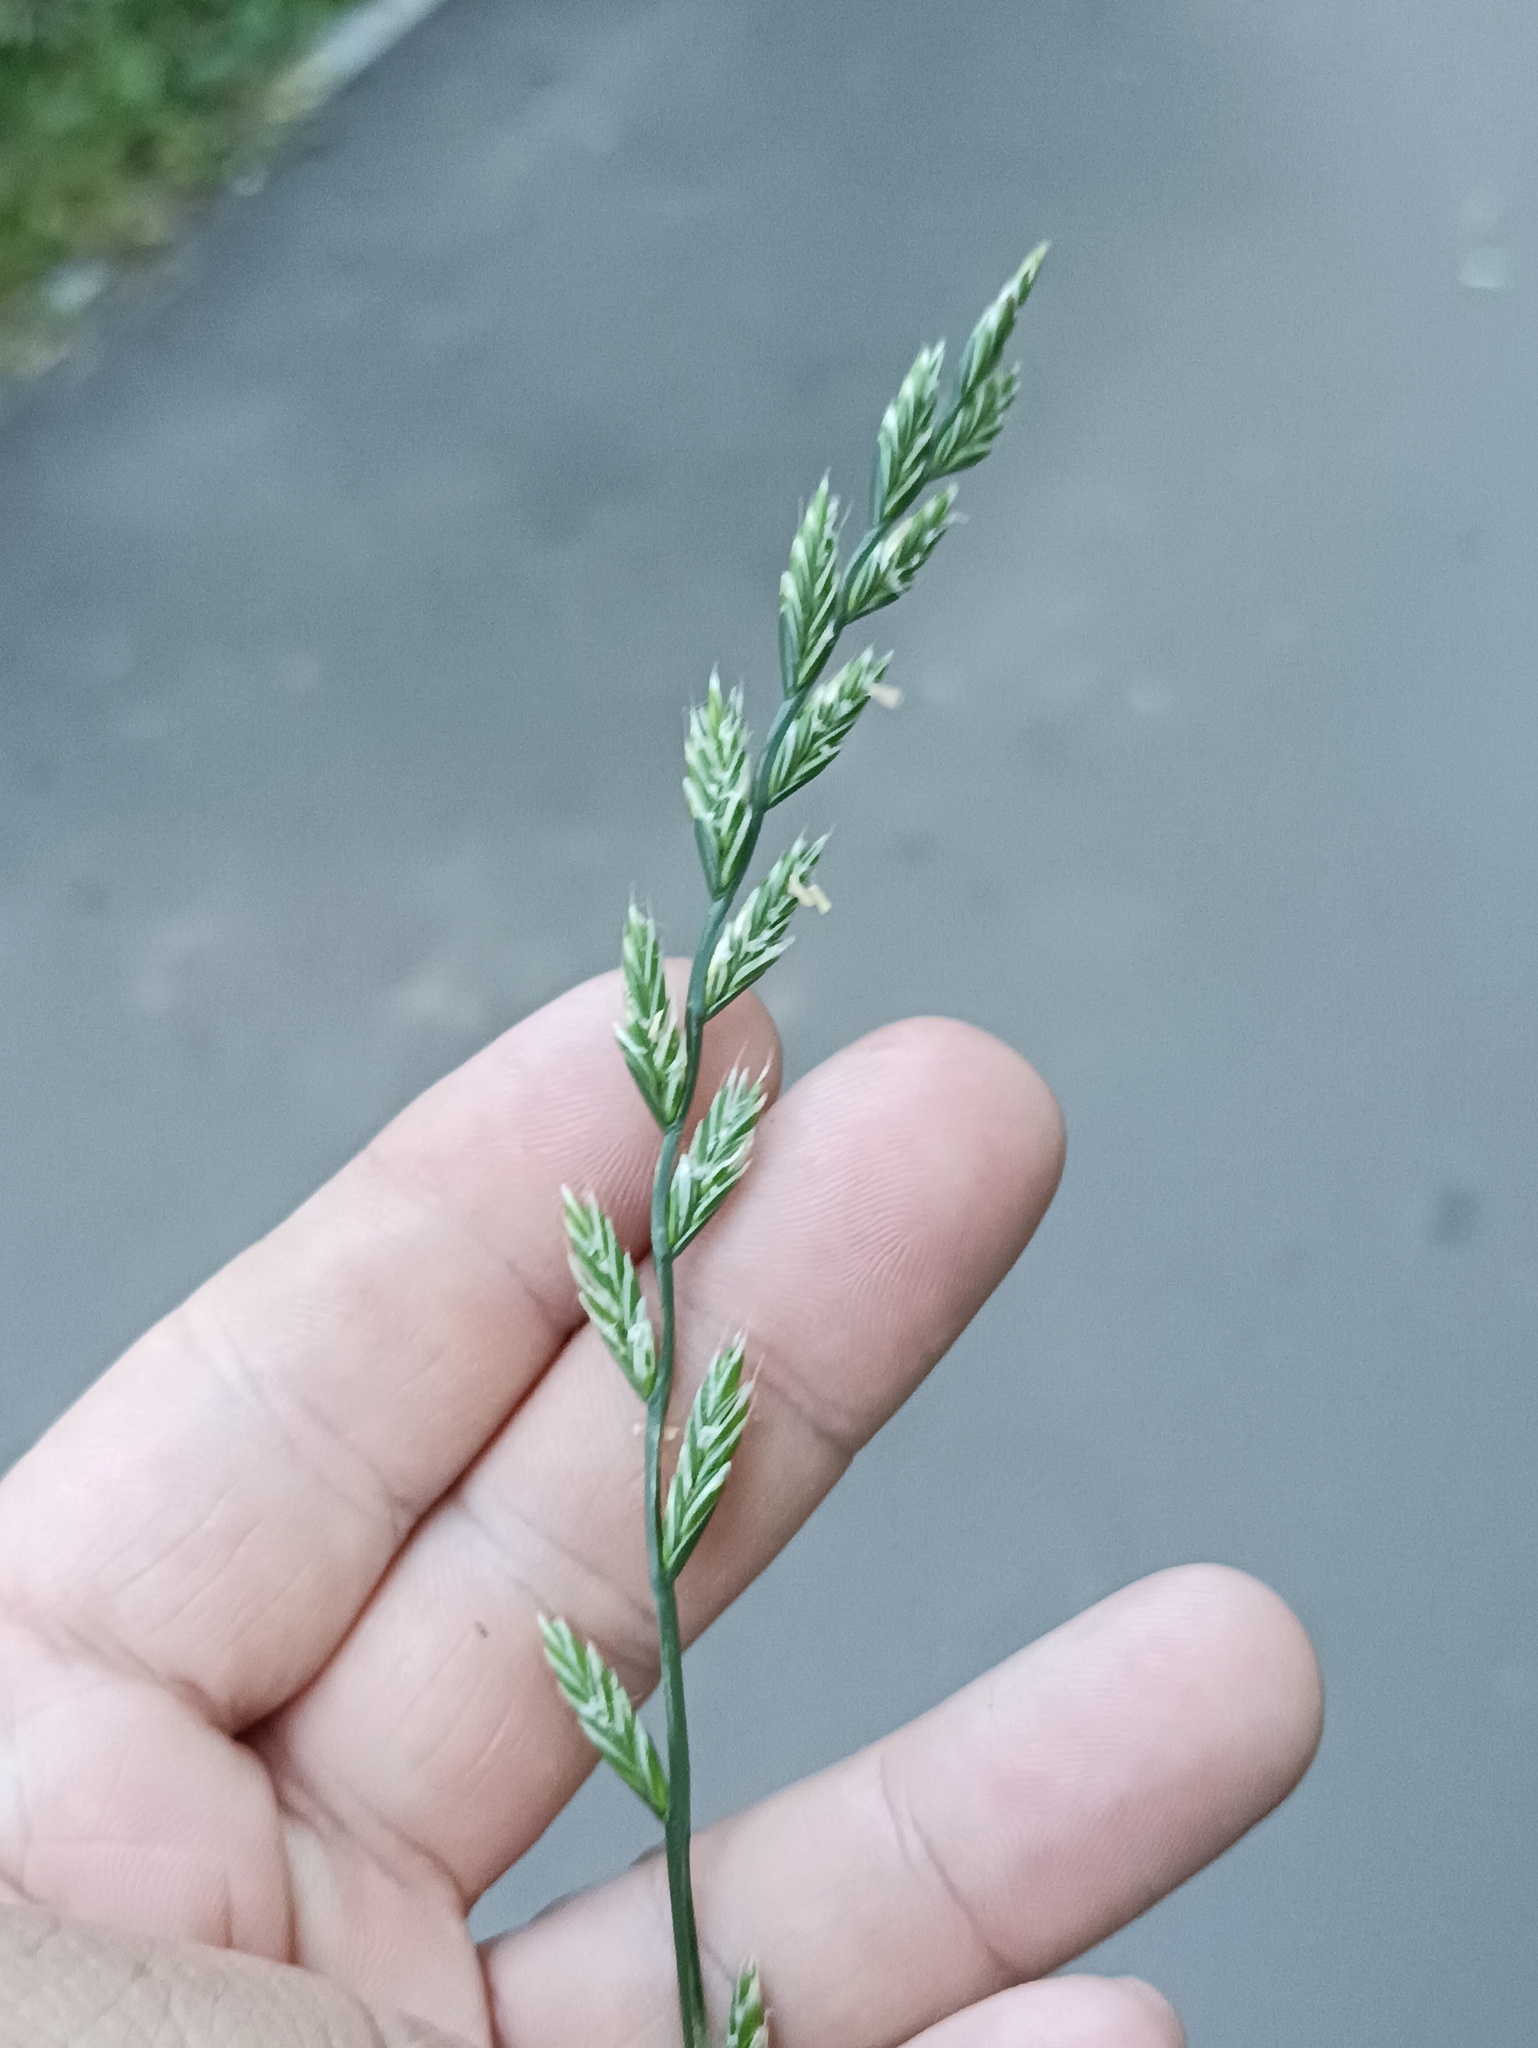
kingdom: Plantae
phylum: Tracheophyta
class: Liliopsida
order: Poales
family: Poaceae
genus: Lolium
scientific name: Lolium perenne
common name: Perennial ryegrass
